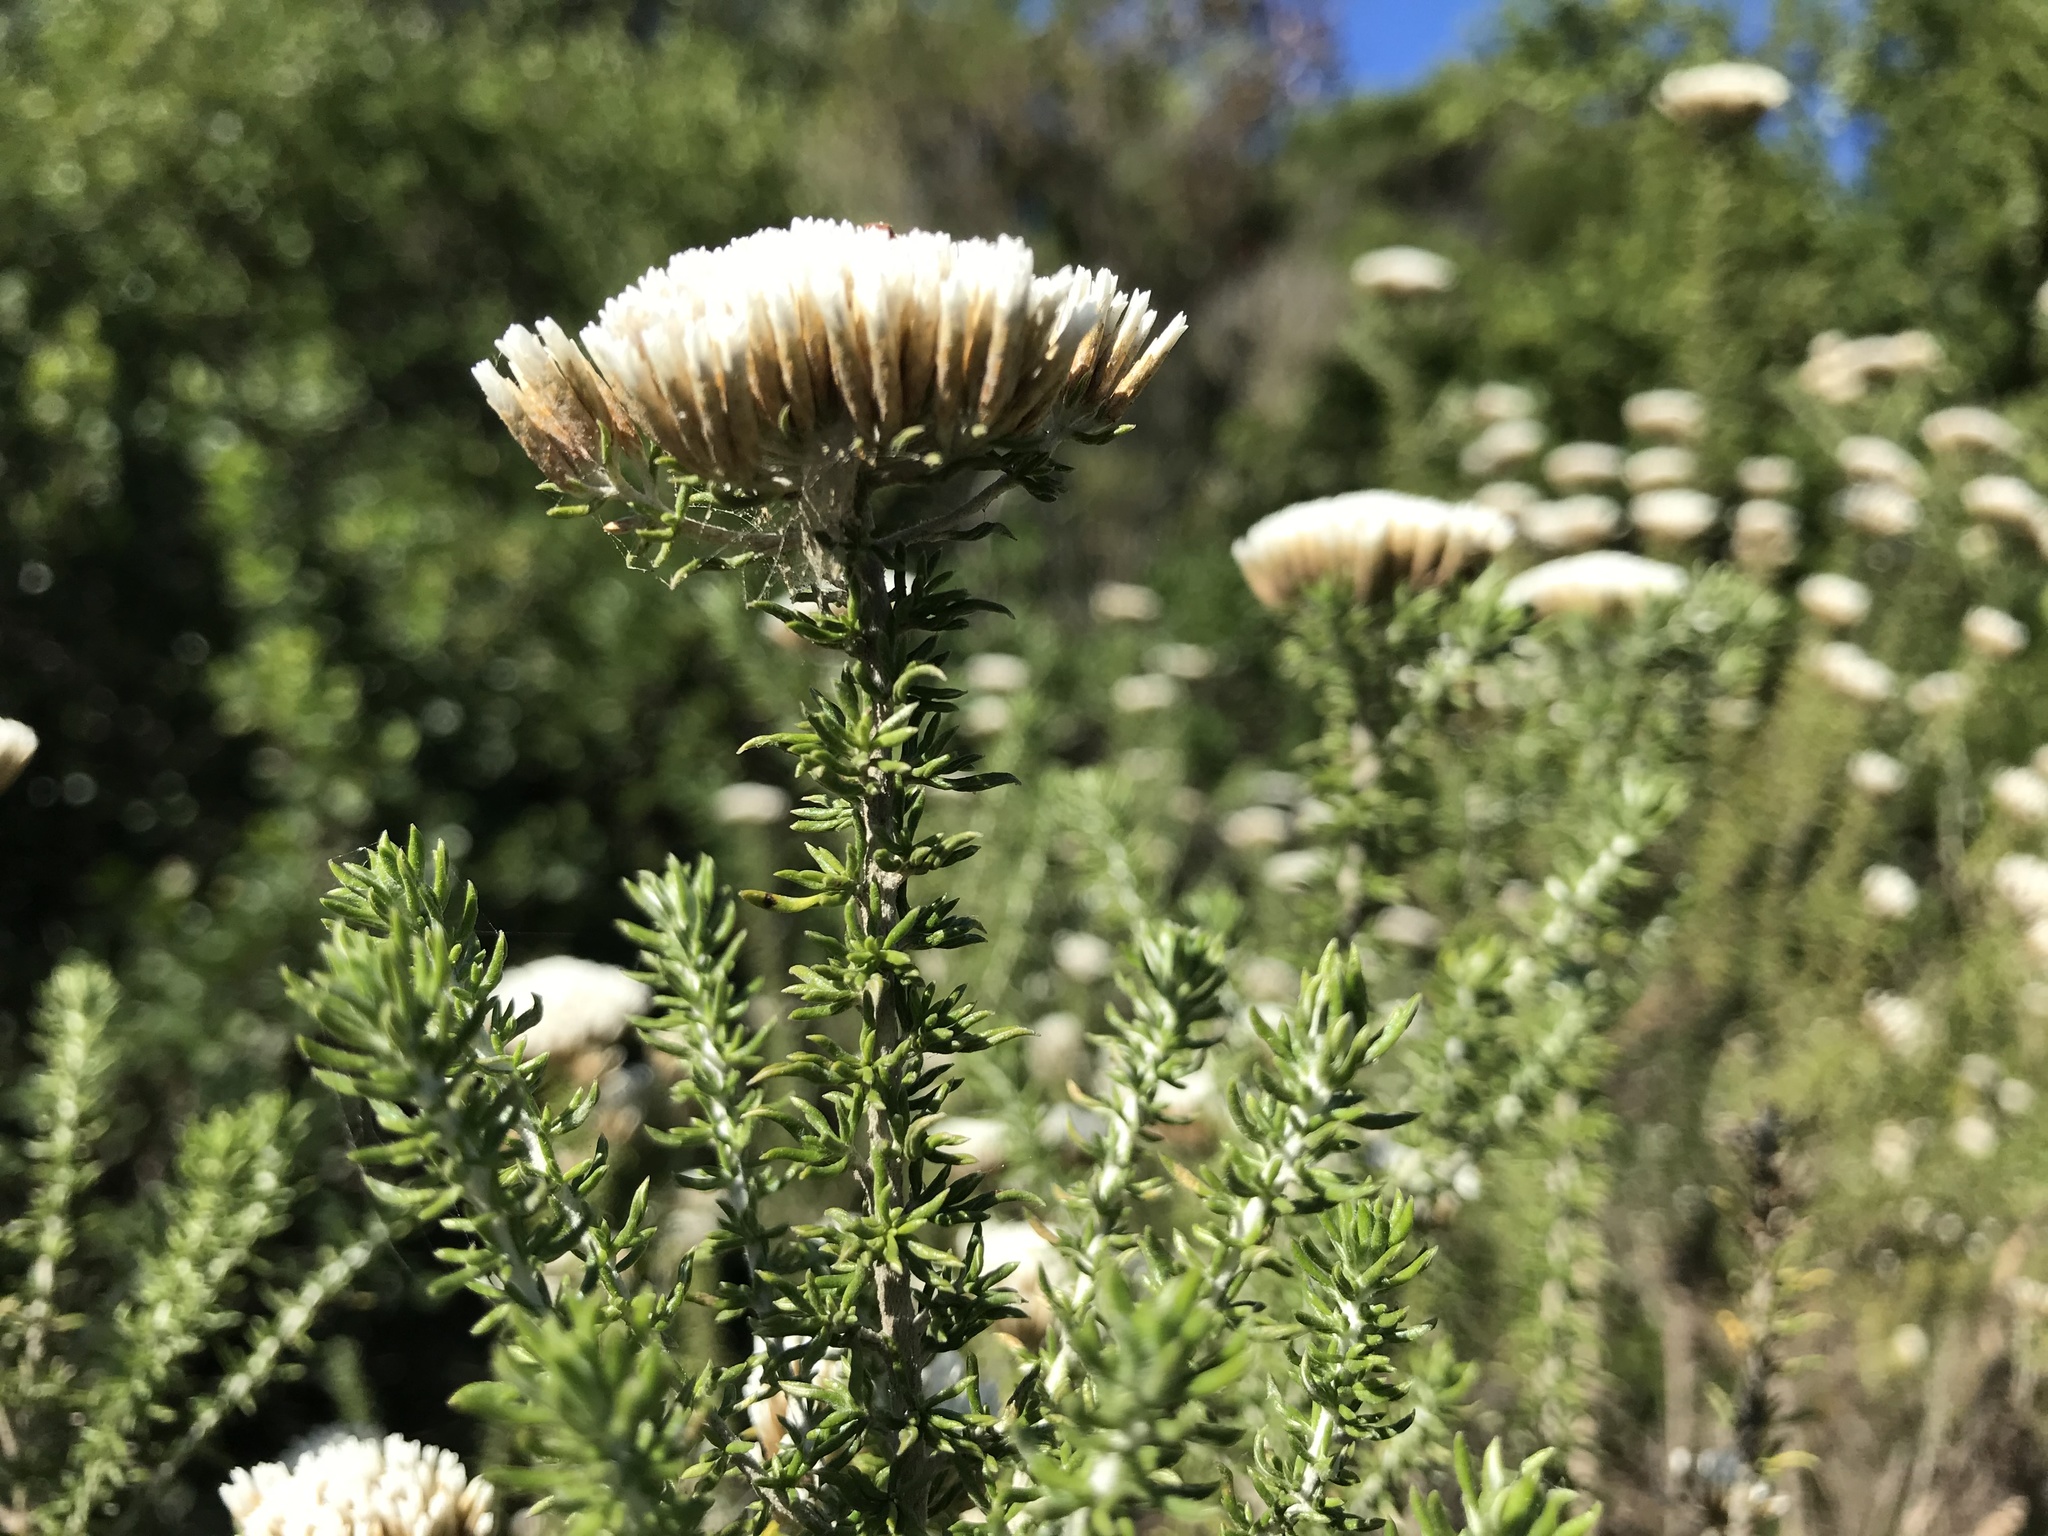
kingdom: Plantae
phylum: Tracheophyta
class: Magnoliopsida
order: Asterales
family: Asteraceae
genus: Metalasia
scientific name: Metalasia muricata
